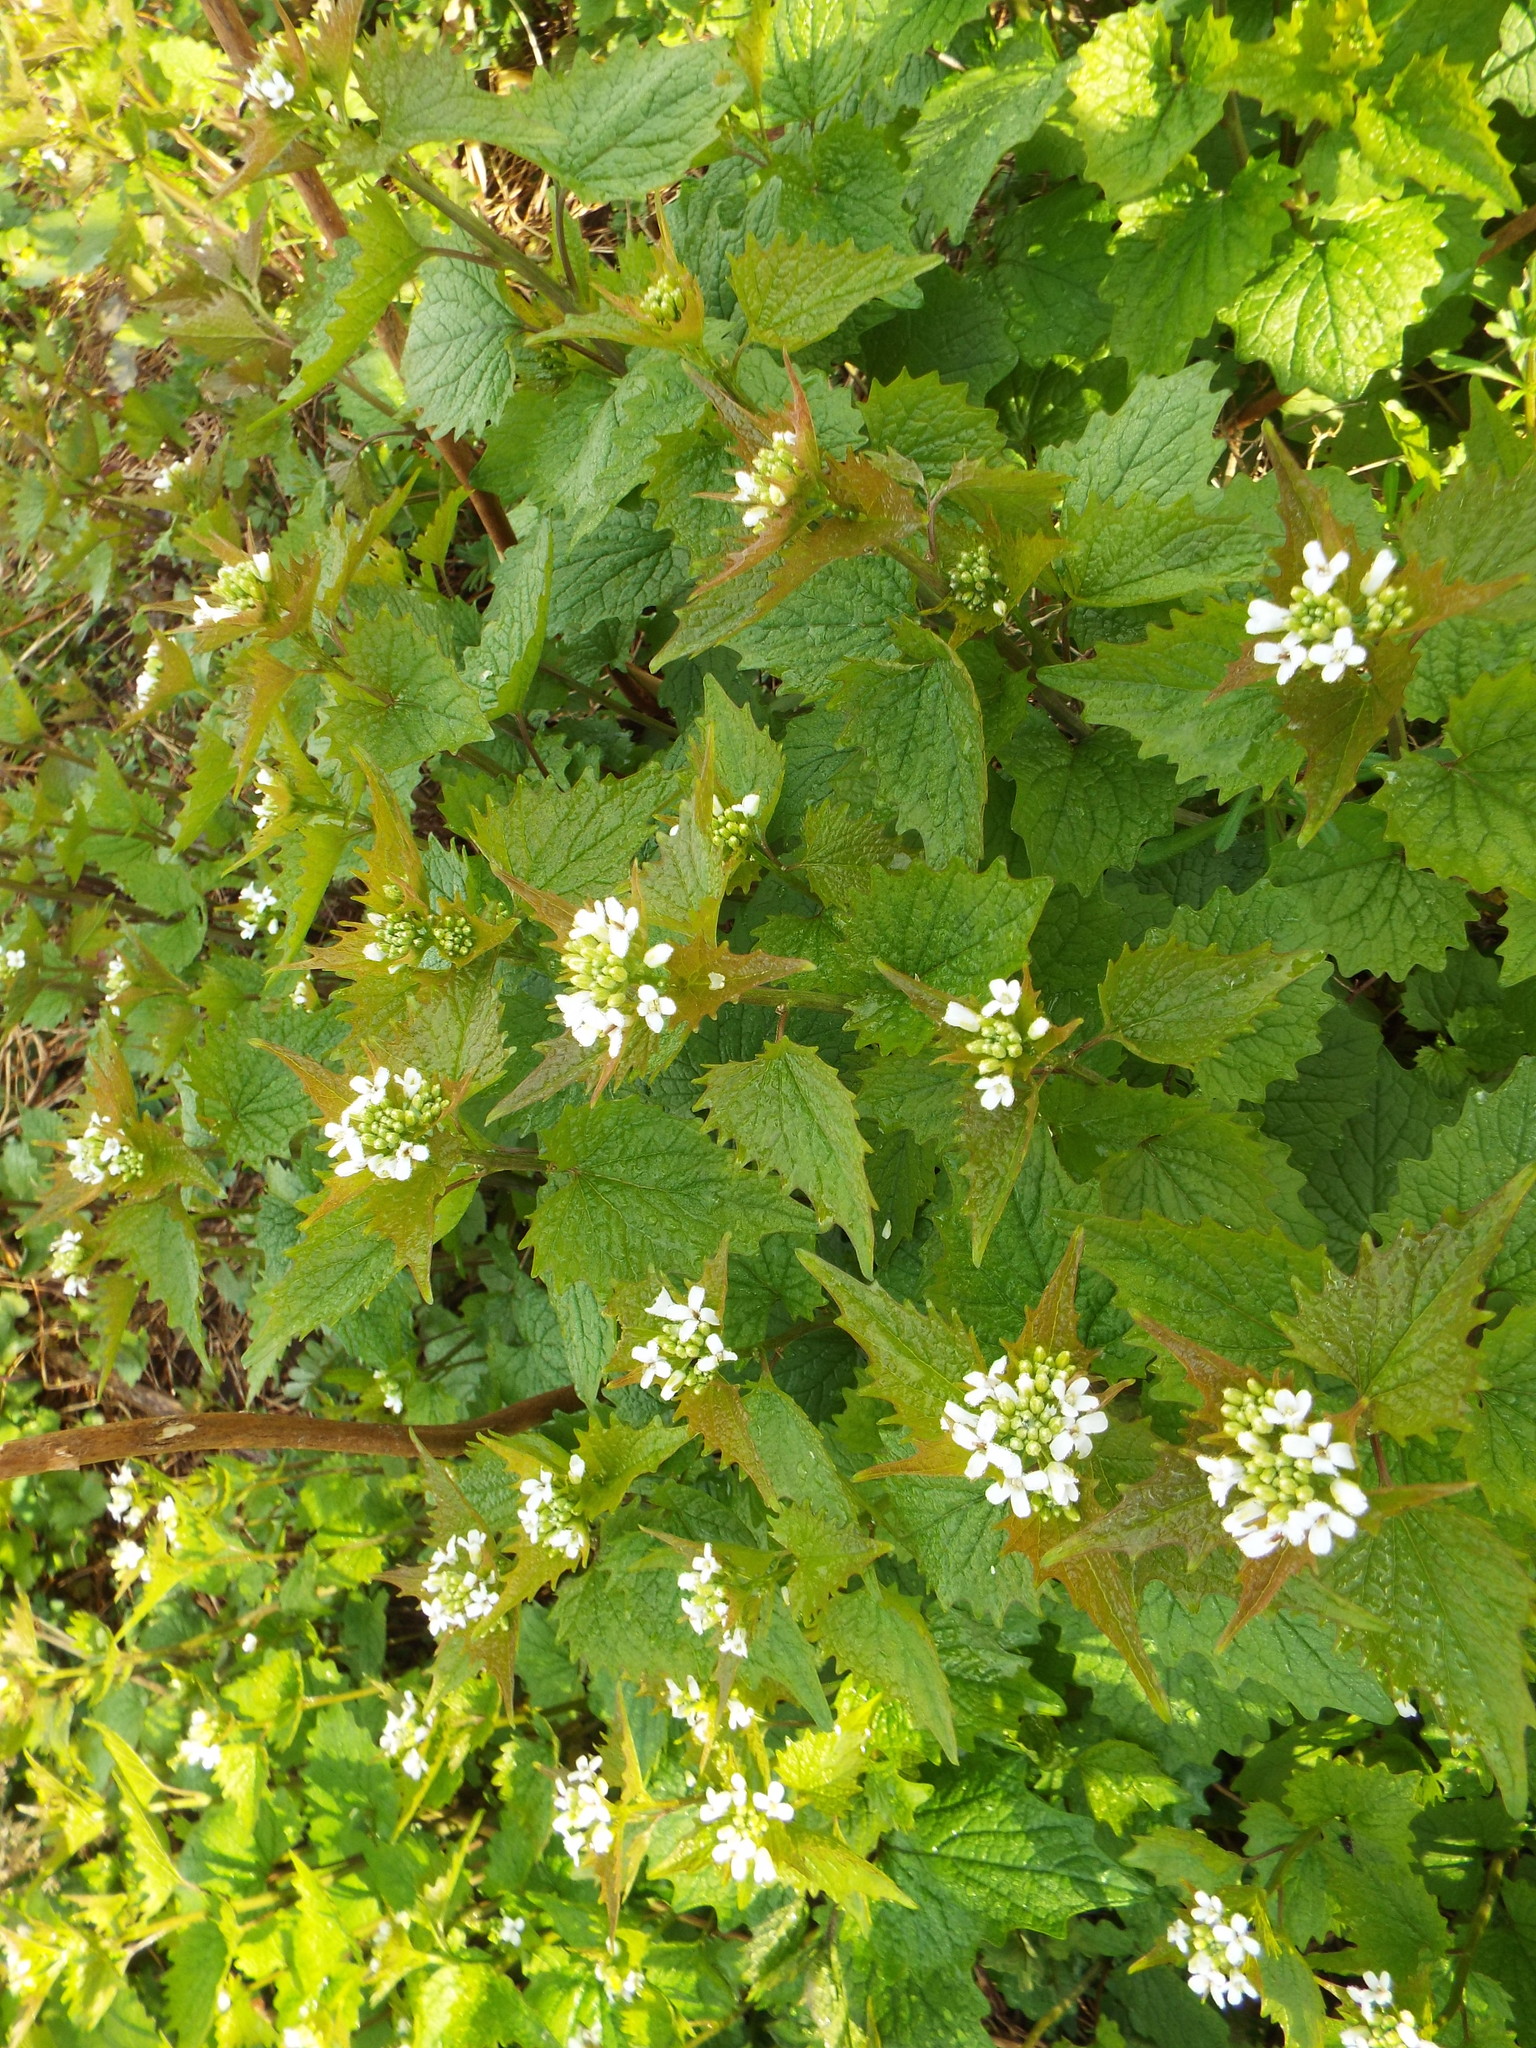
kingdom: Plantae
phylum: Tracheophyta
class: Magnoliopsida
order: Brassicales
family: Brassicaceae
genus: Alliaria
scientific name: Alliaria petiolata
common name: Garlic mustard
